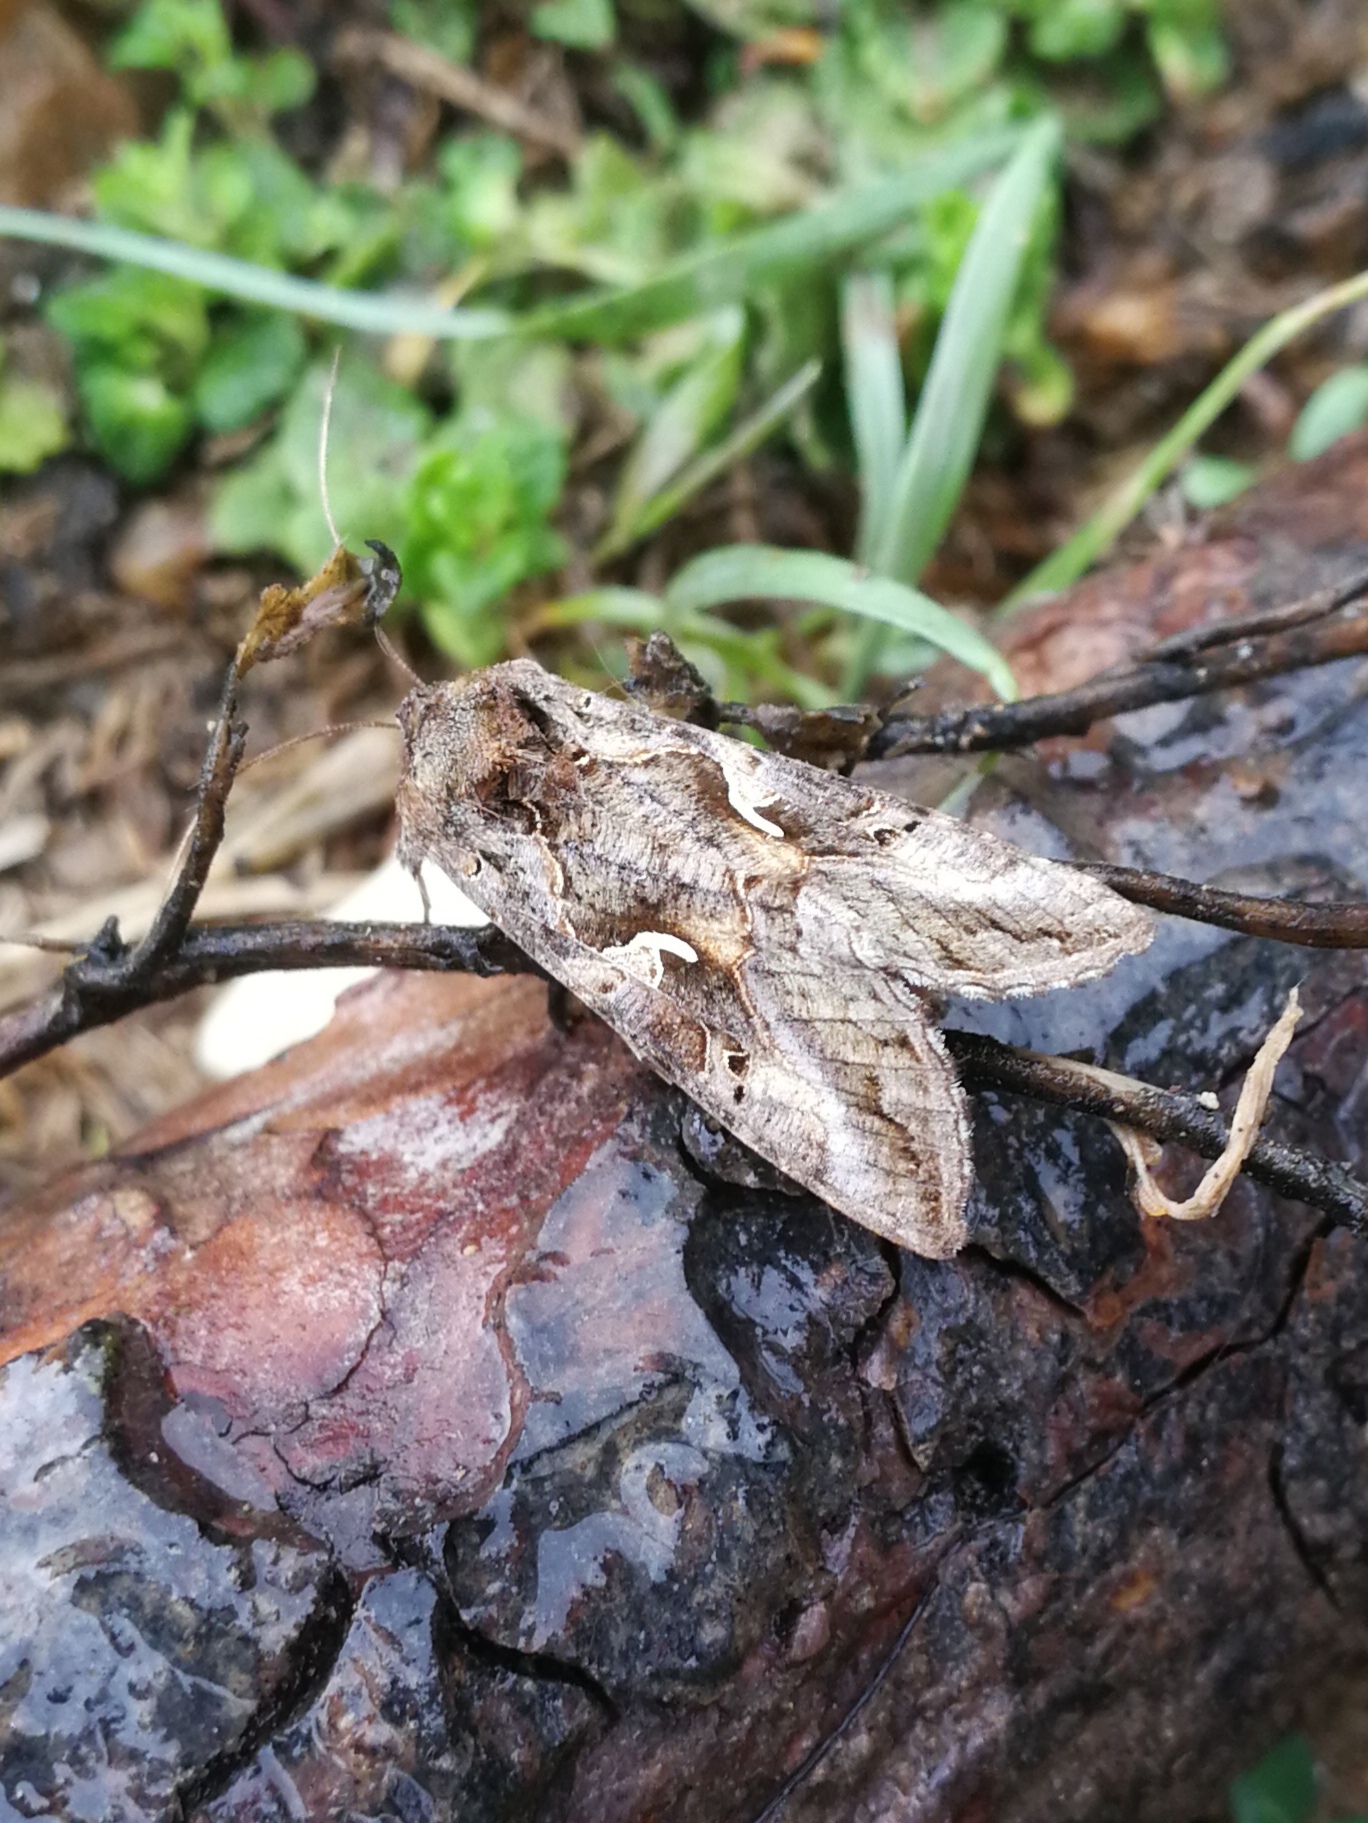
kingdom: Animalia
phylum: Arthropoda
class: Insecta
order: Lepidoptera
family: Noctuidae
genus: Autographa
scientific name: Autographa gamma
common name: Silver y
